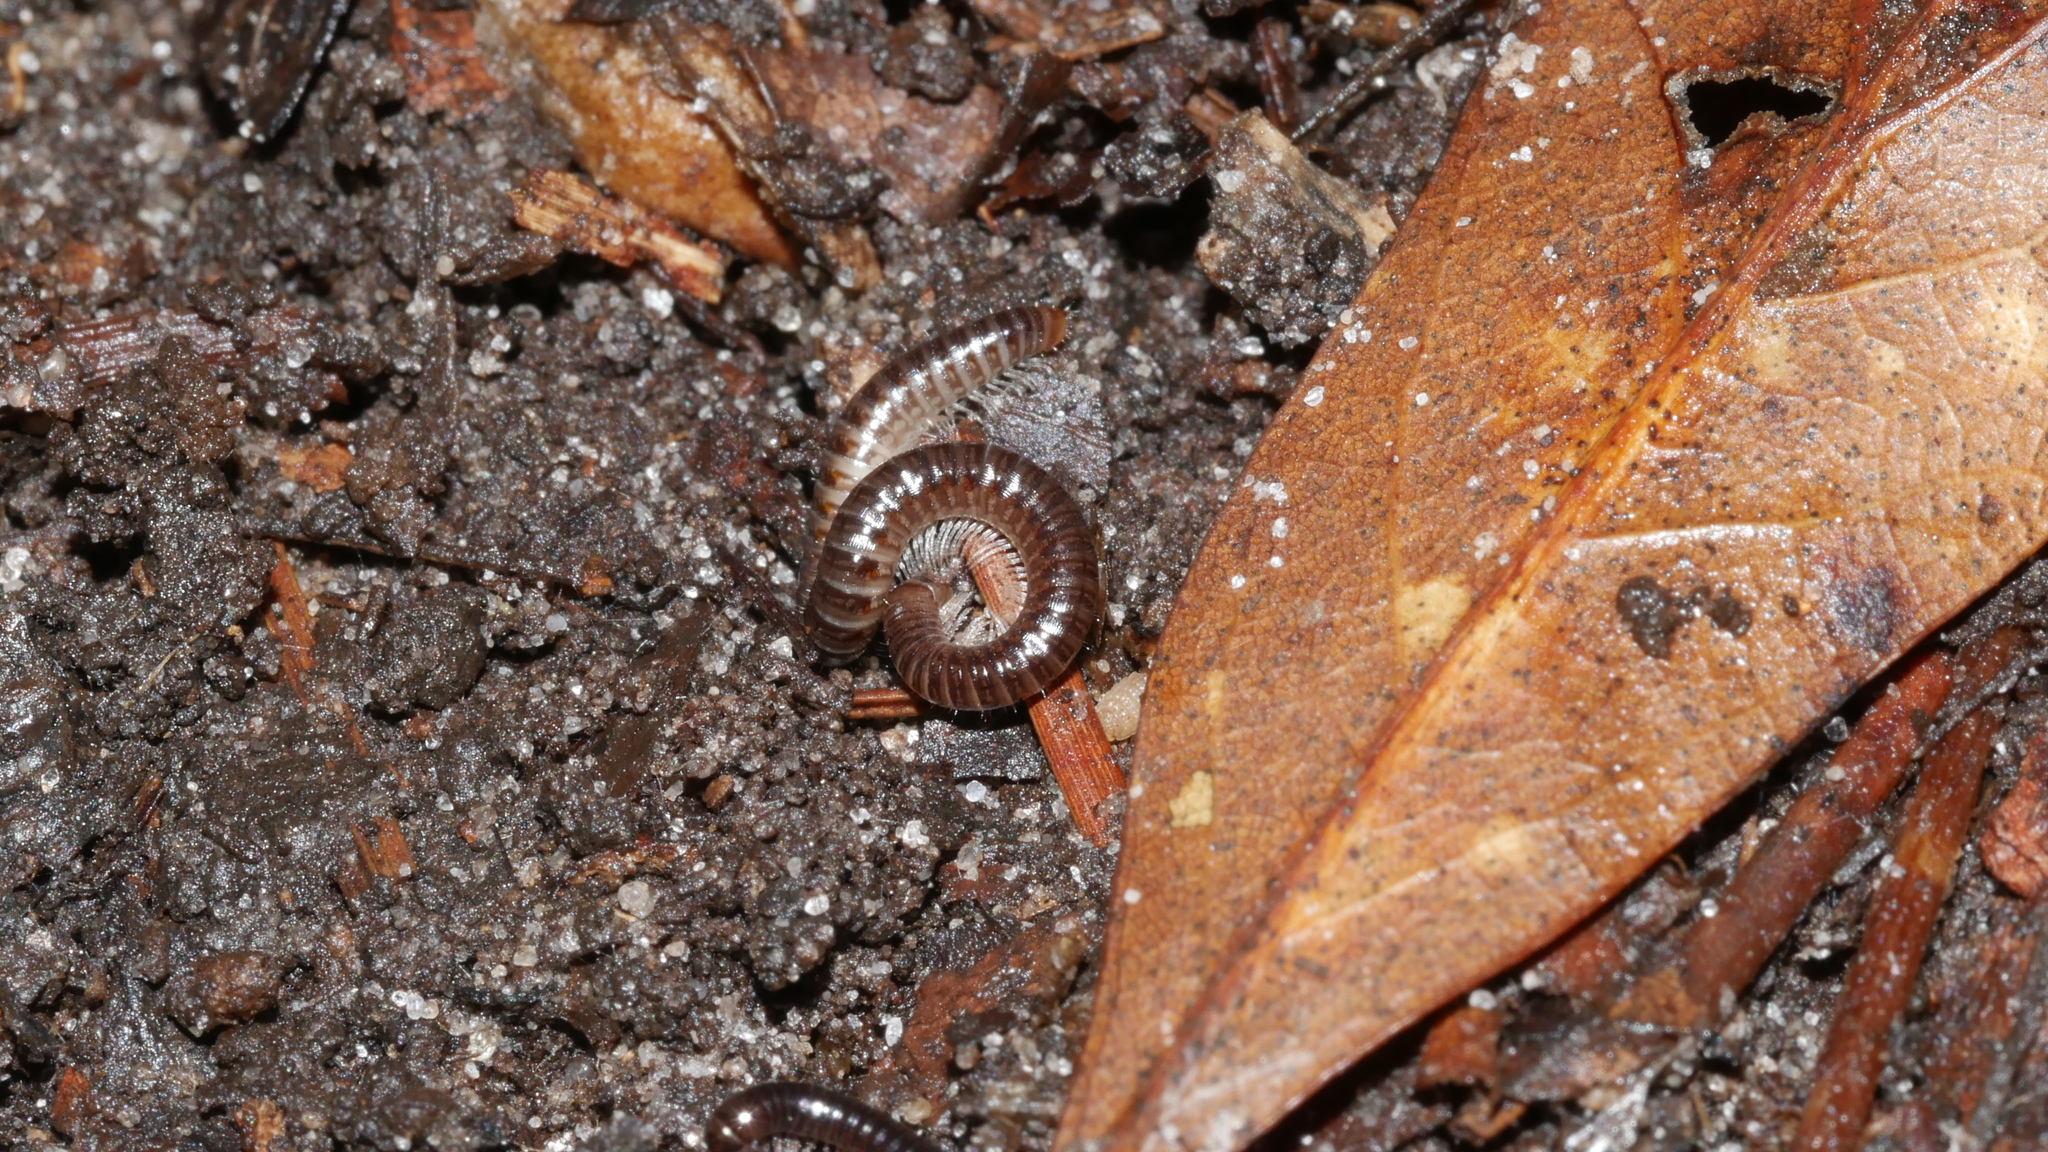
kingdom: Animalia
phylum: Arthropoda
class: Diplopoda
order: Julida
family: Julidae
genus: Ophyiulus
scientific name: Ophyiulus pilosus
